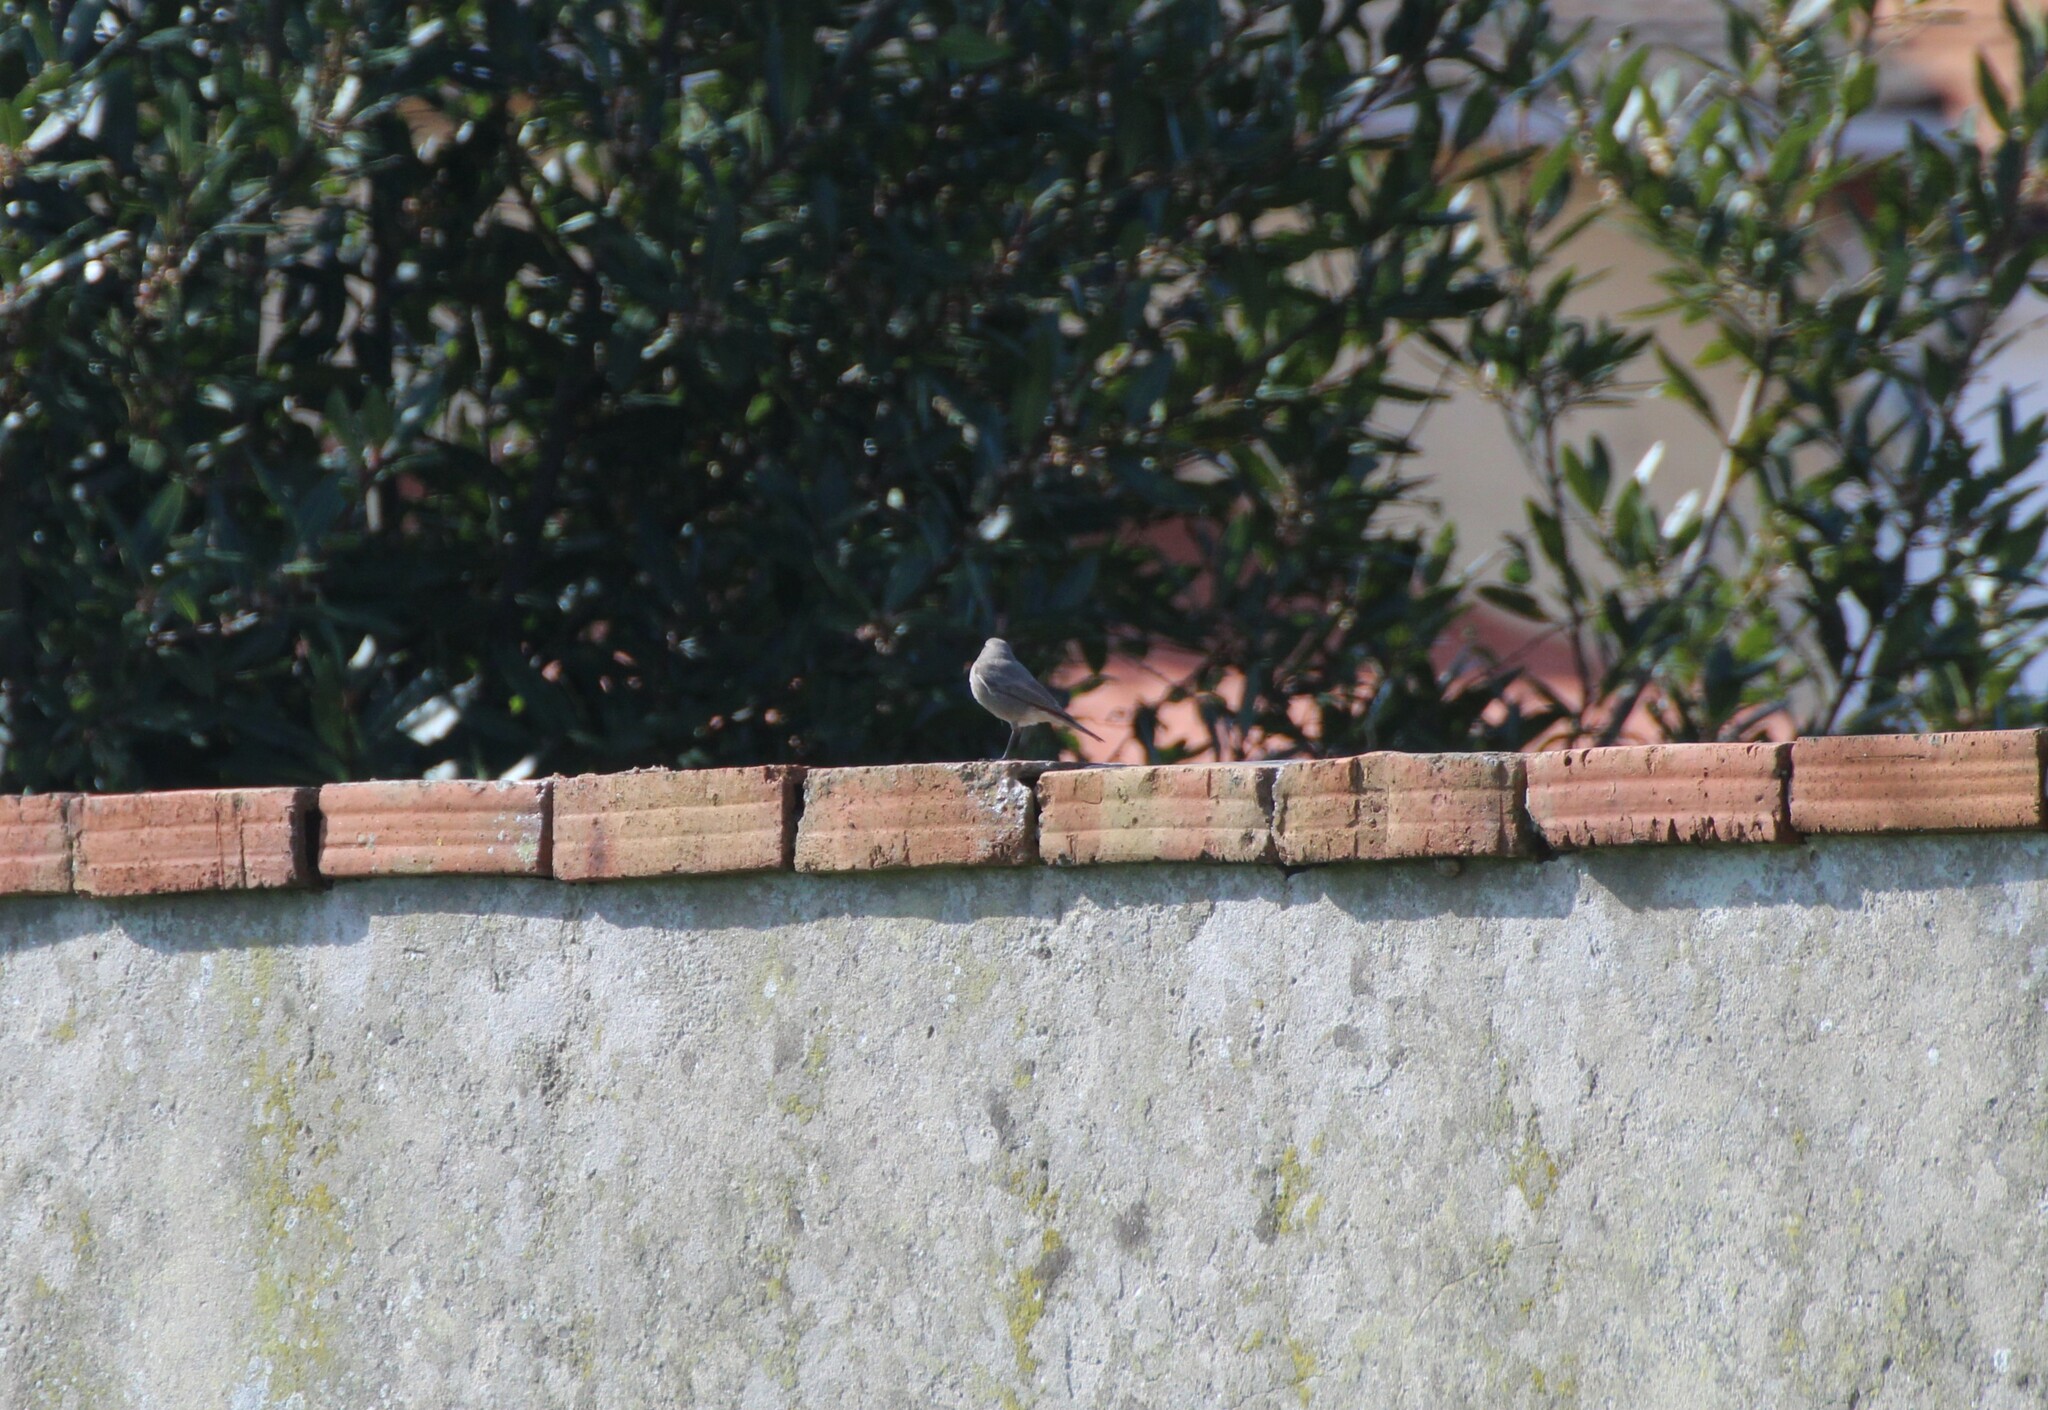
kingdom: Animalia
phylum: Chordata
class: Aves
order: Passeriformes
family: Muscicapidae
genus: Phoenicurus
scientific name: Phoenicurus ochruros
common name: Black redstart
